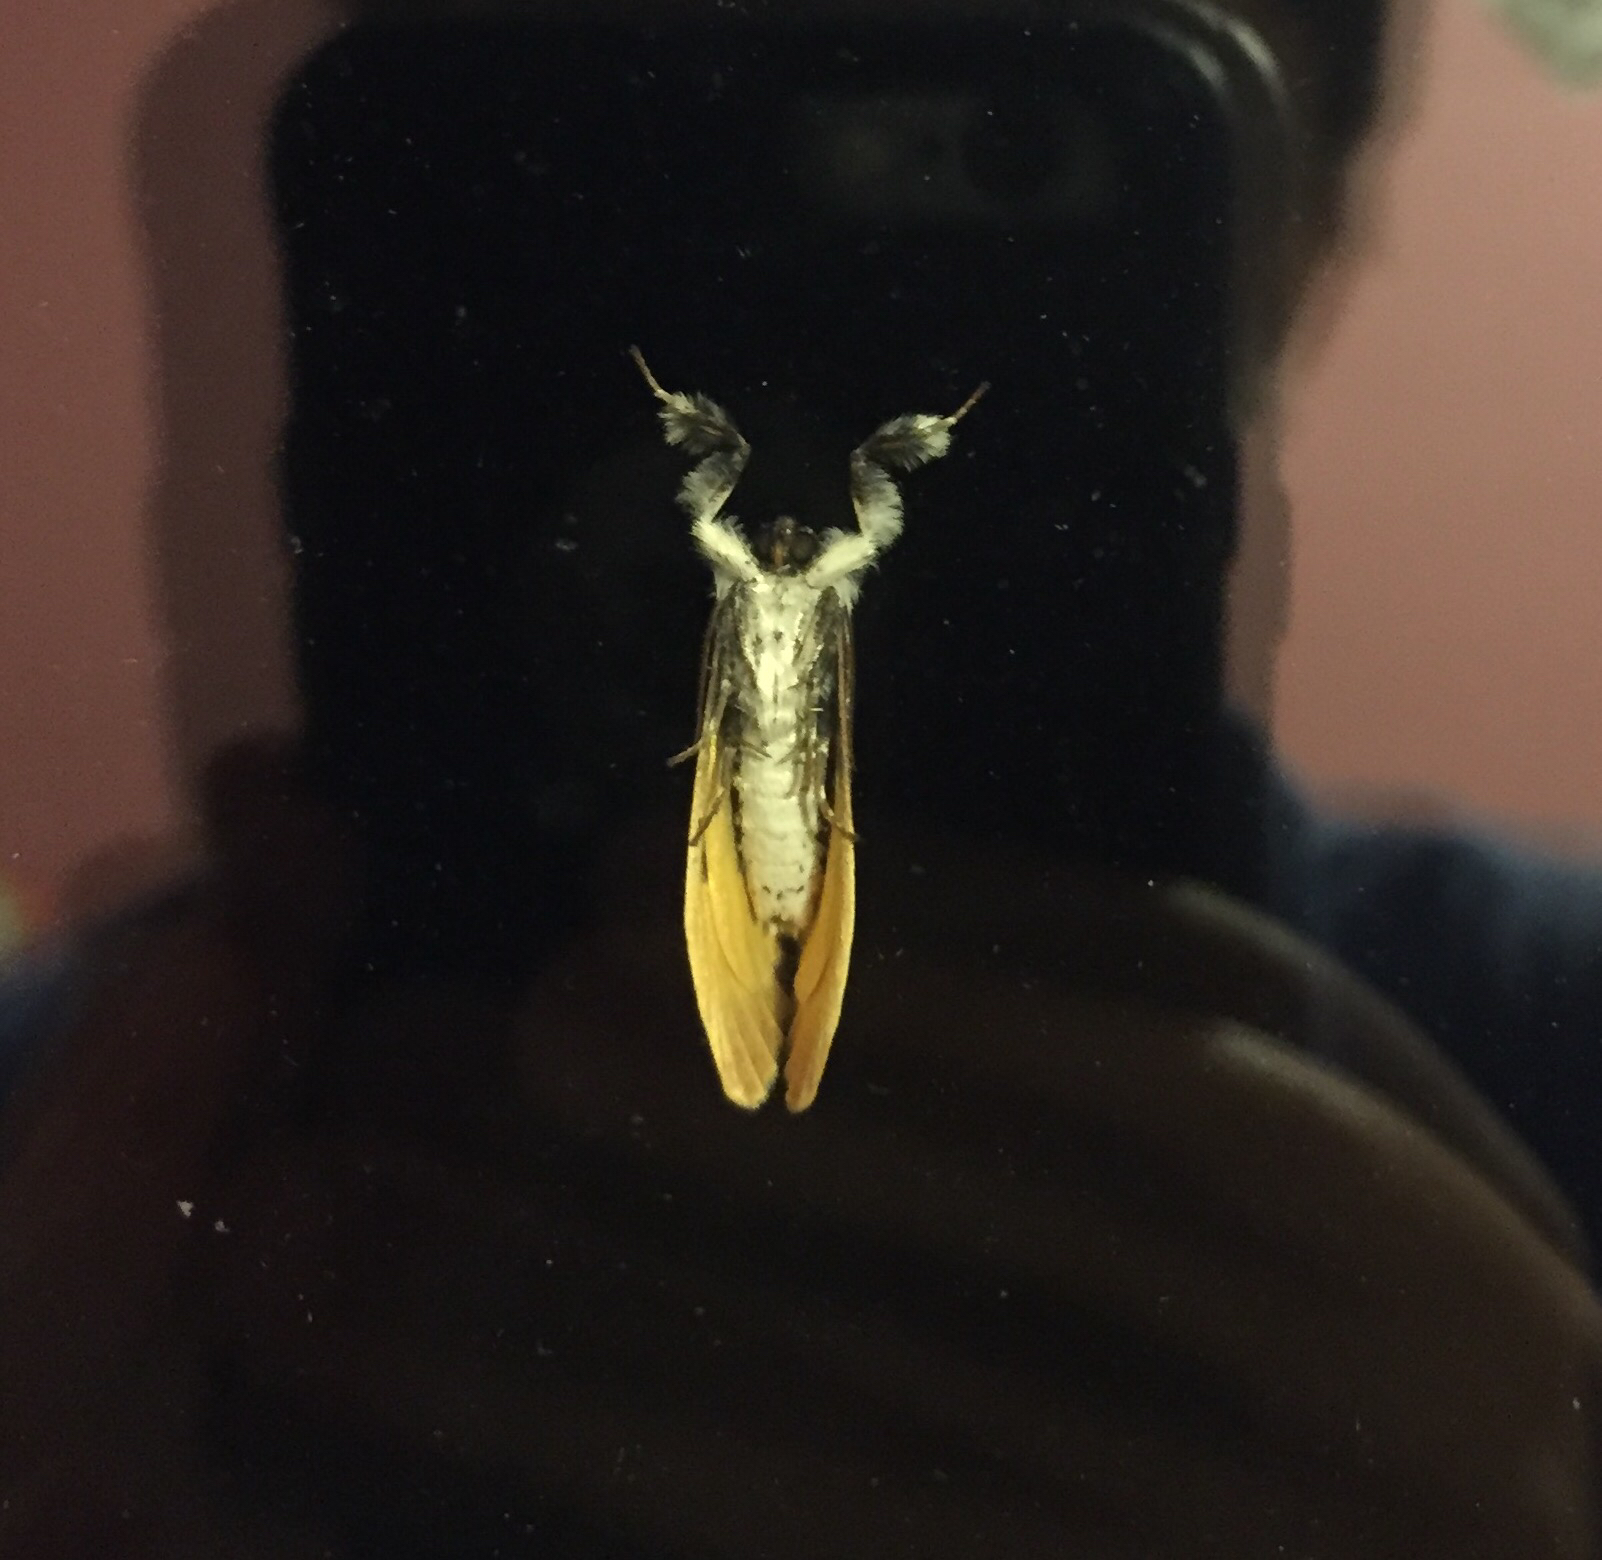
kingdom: Animalia
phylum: Arthropoda
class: Insecta
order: Lepidoptera
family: Noctuidae
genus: Eudryas
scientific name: Eudryas grata
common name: Beautiful wood-nymph
